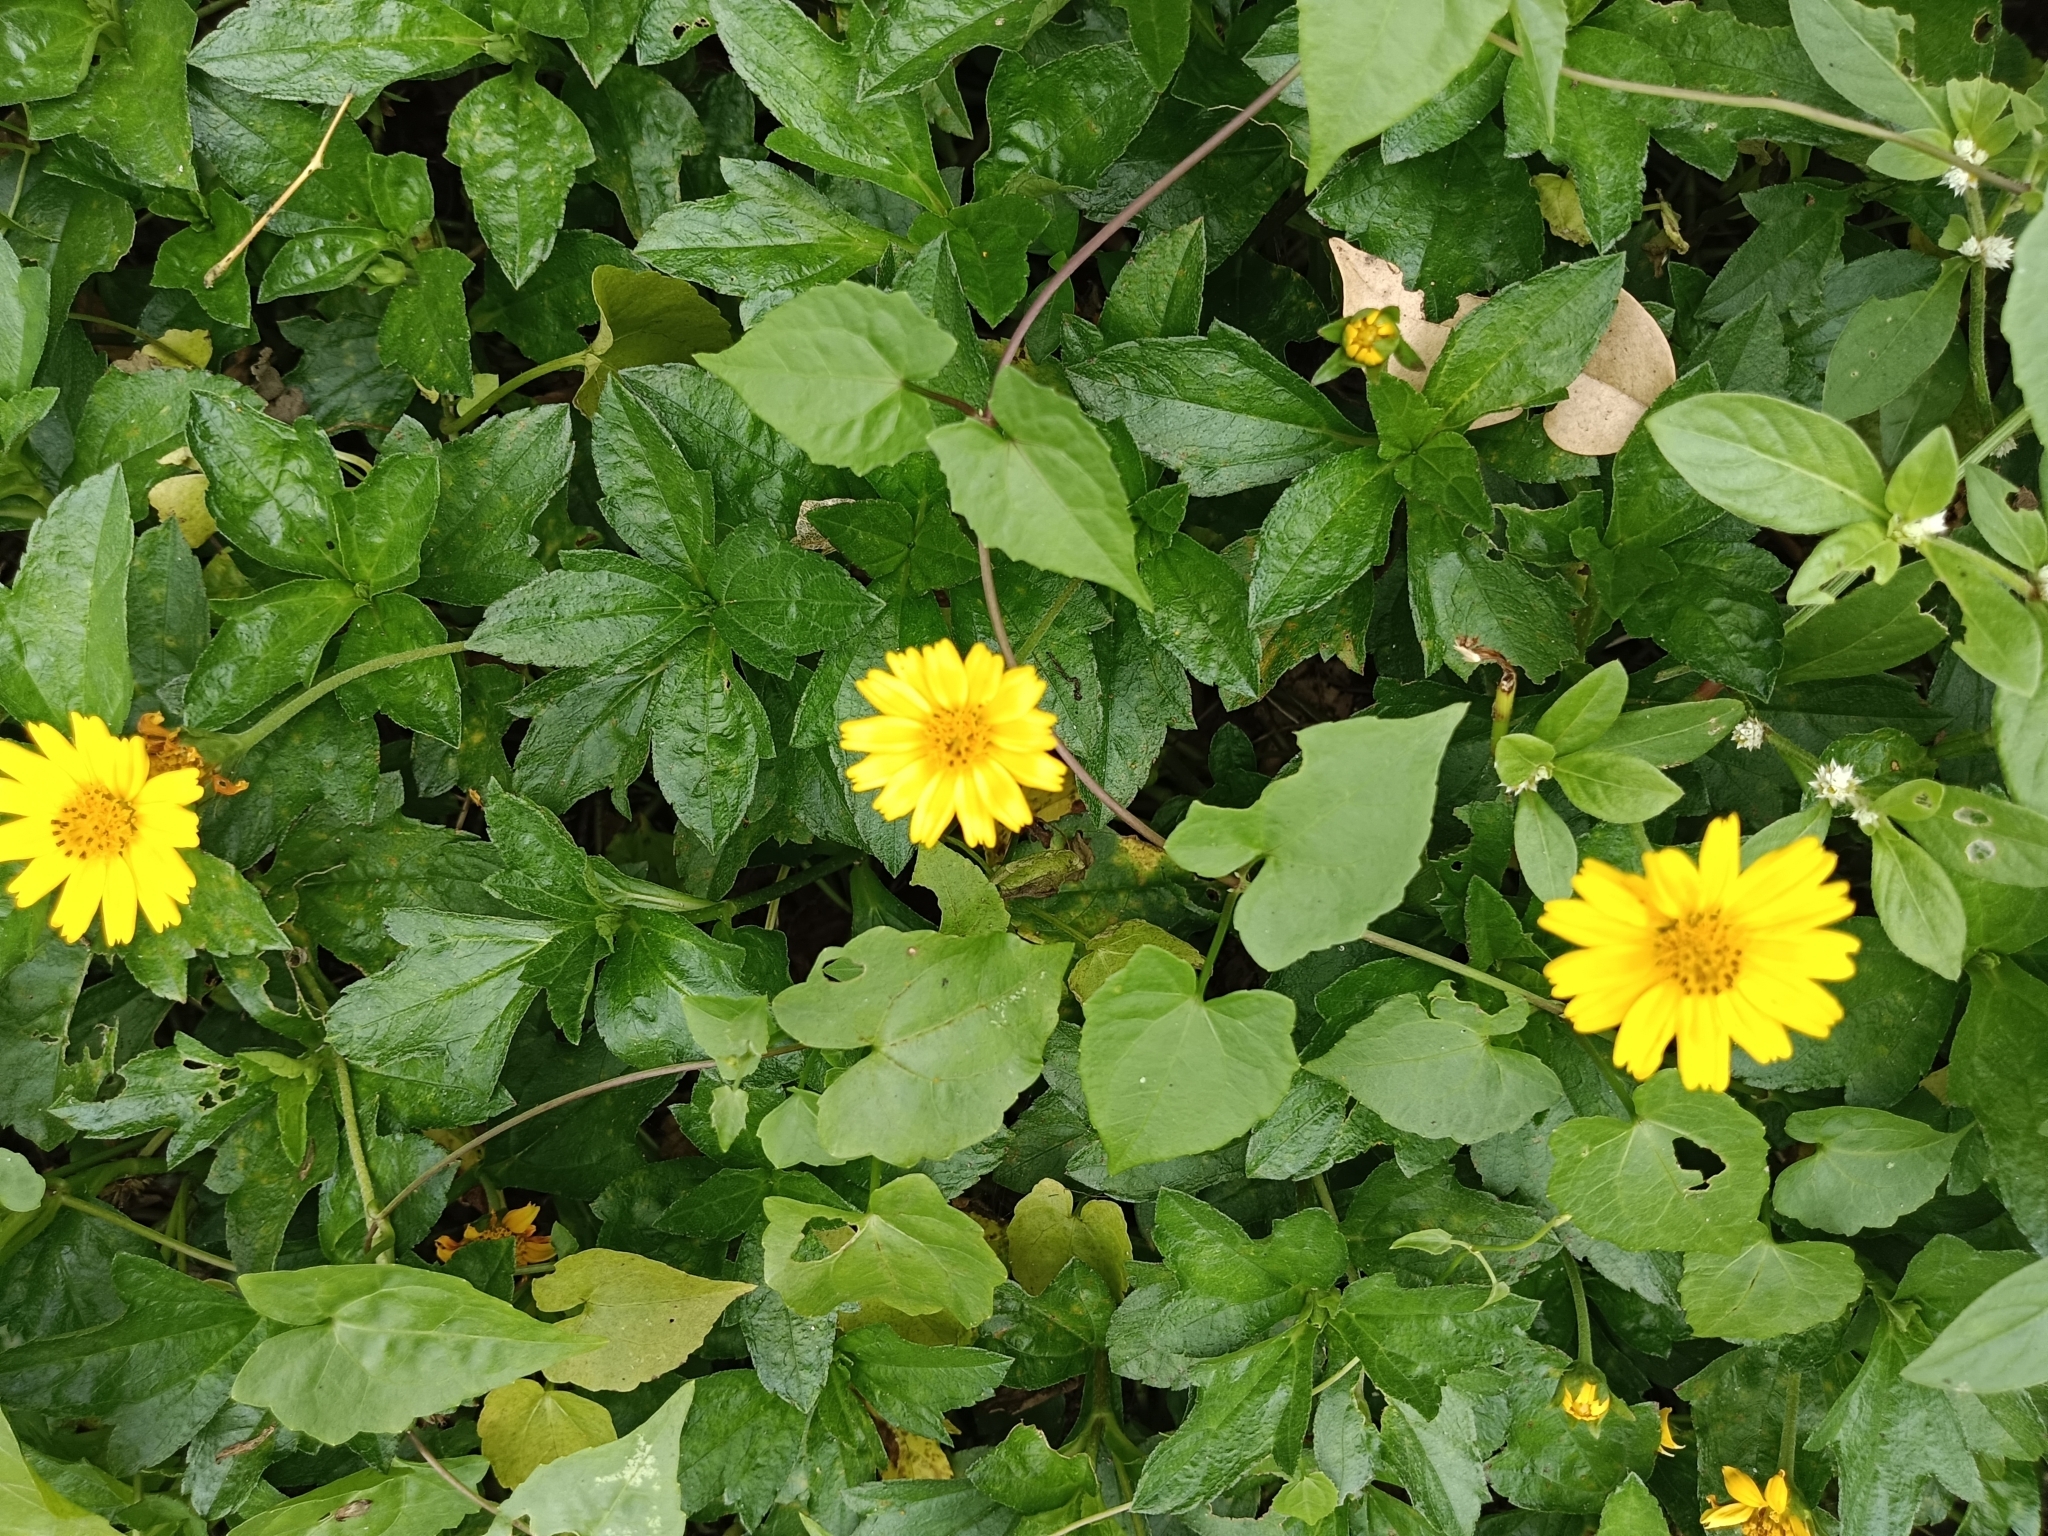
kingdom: Plantae
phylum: Tracheophyta
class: Magnoliopsida
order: Asterales
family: Asteraceae
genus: Sphagneticola
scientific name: Sphagneticola trilobata
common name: Bay biscayne creeping-oxeye
